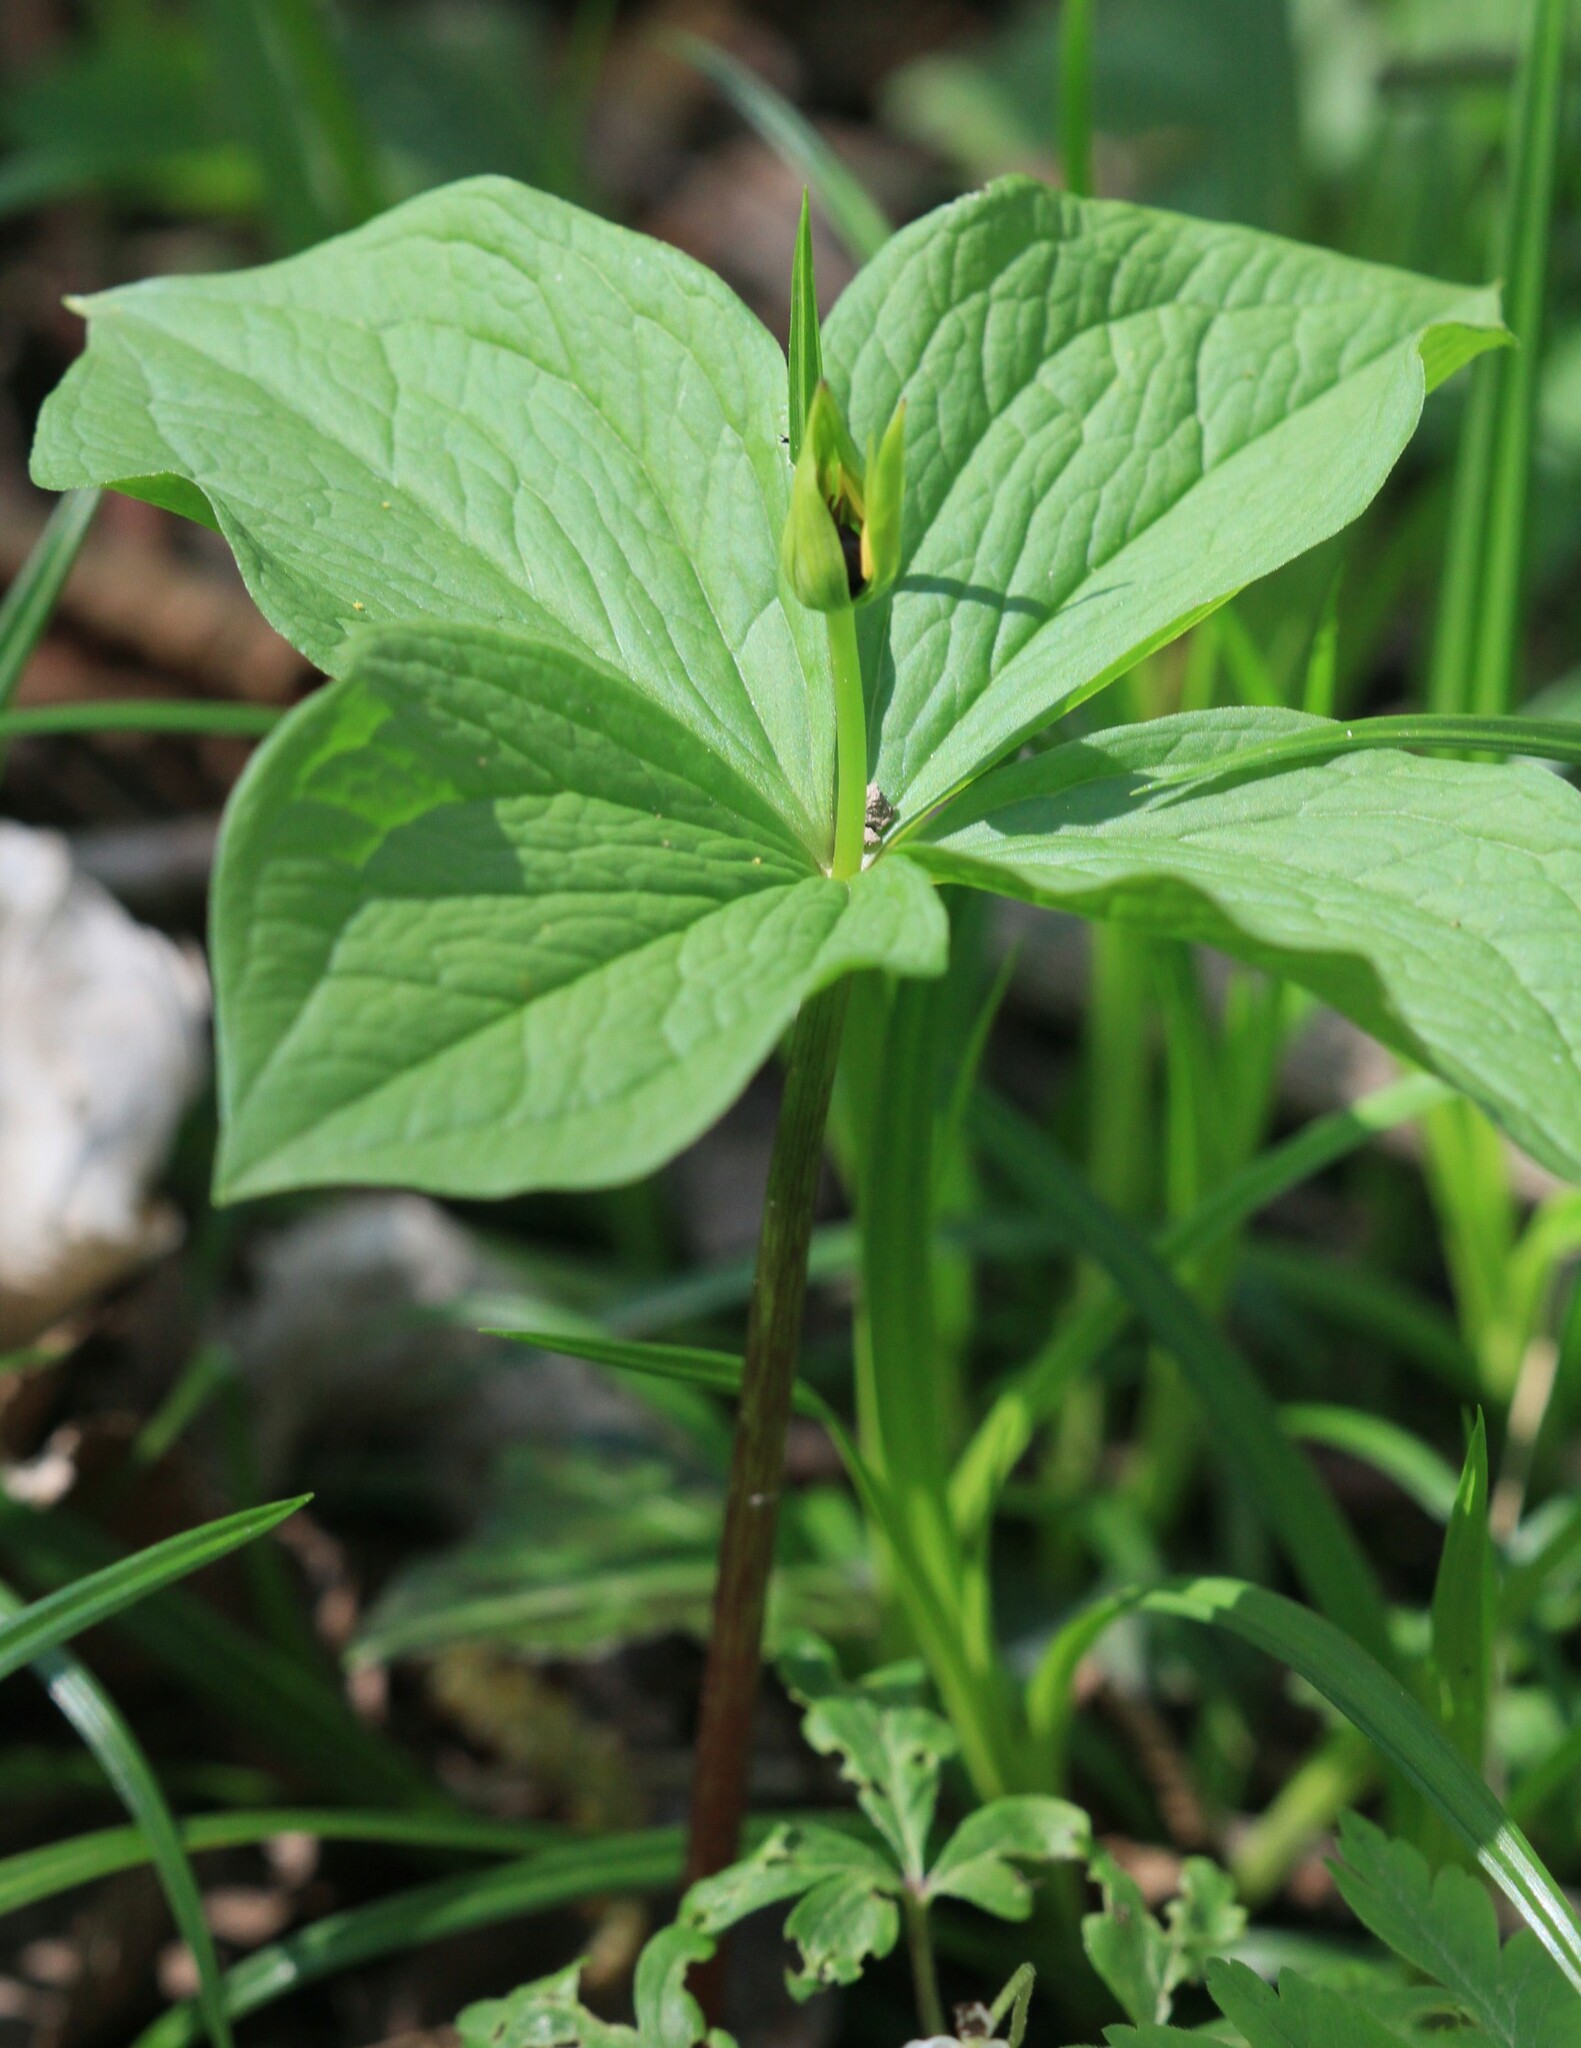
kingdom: Plantae
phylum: Tracheophyta
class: Liliopsida
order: Liliales
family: Melanthiaceae
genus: Paris
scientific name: Paris quadrifolia
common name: Herb-paris
